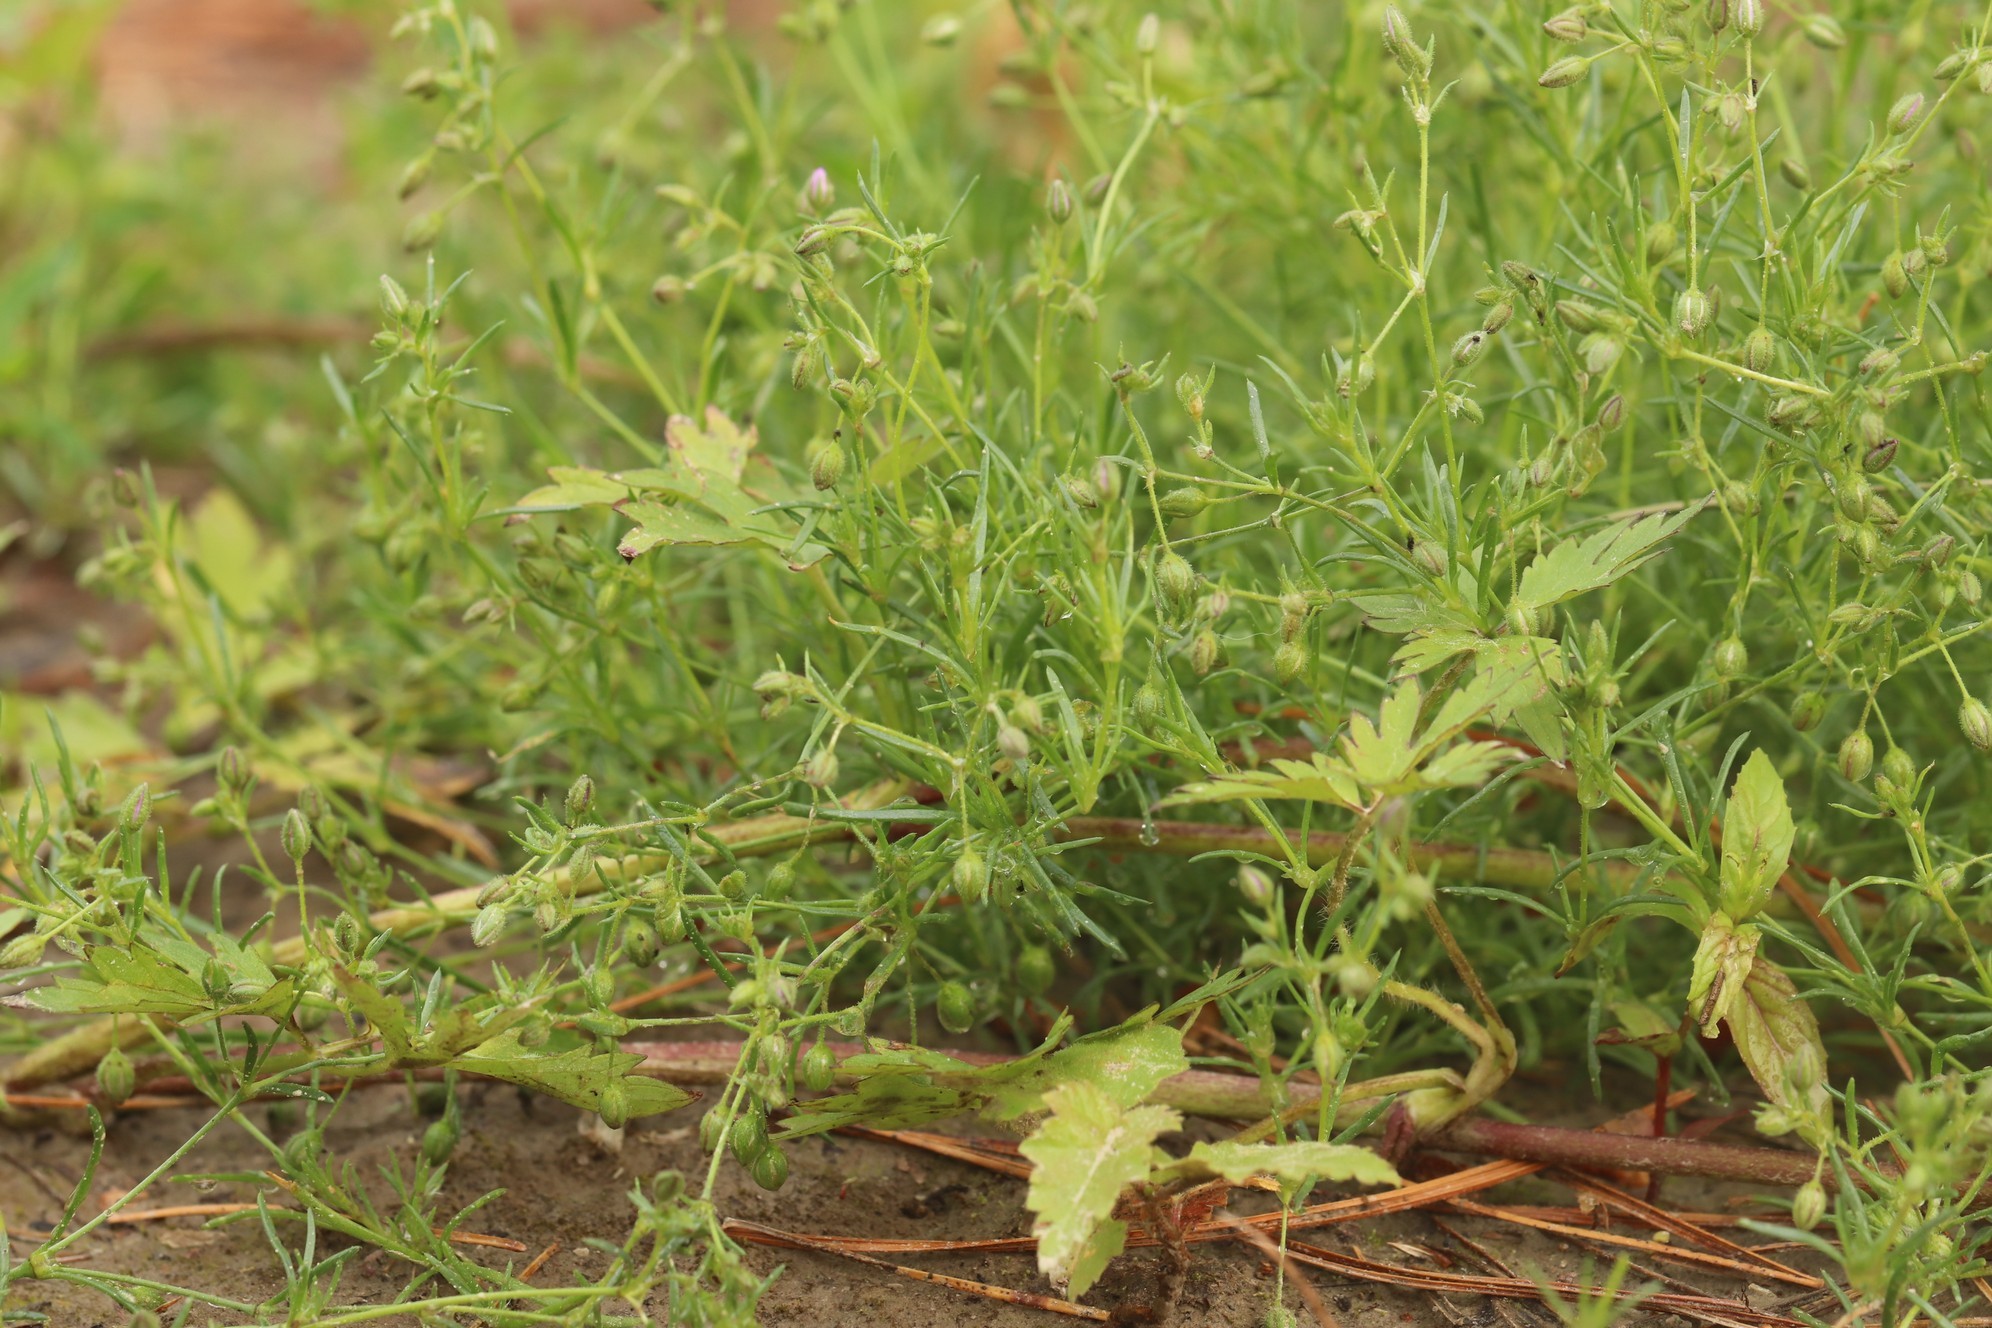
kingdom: Plantae
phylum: Tracheophyta
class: Magnoliopsida
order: Caryophyllales
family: Caryophyllaceae
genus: Spergularia
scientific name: Spergularia rubra
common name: Red sand-spurrey
